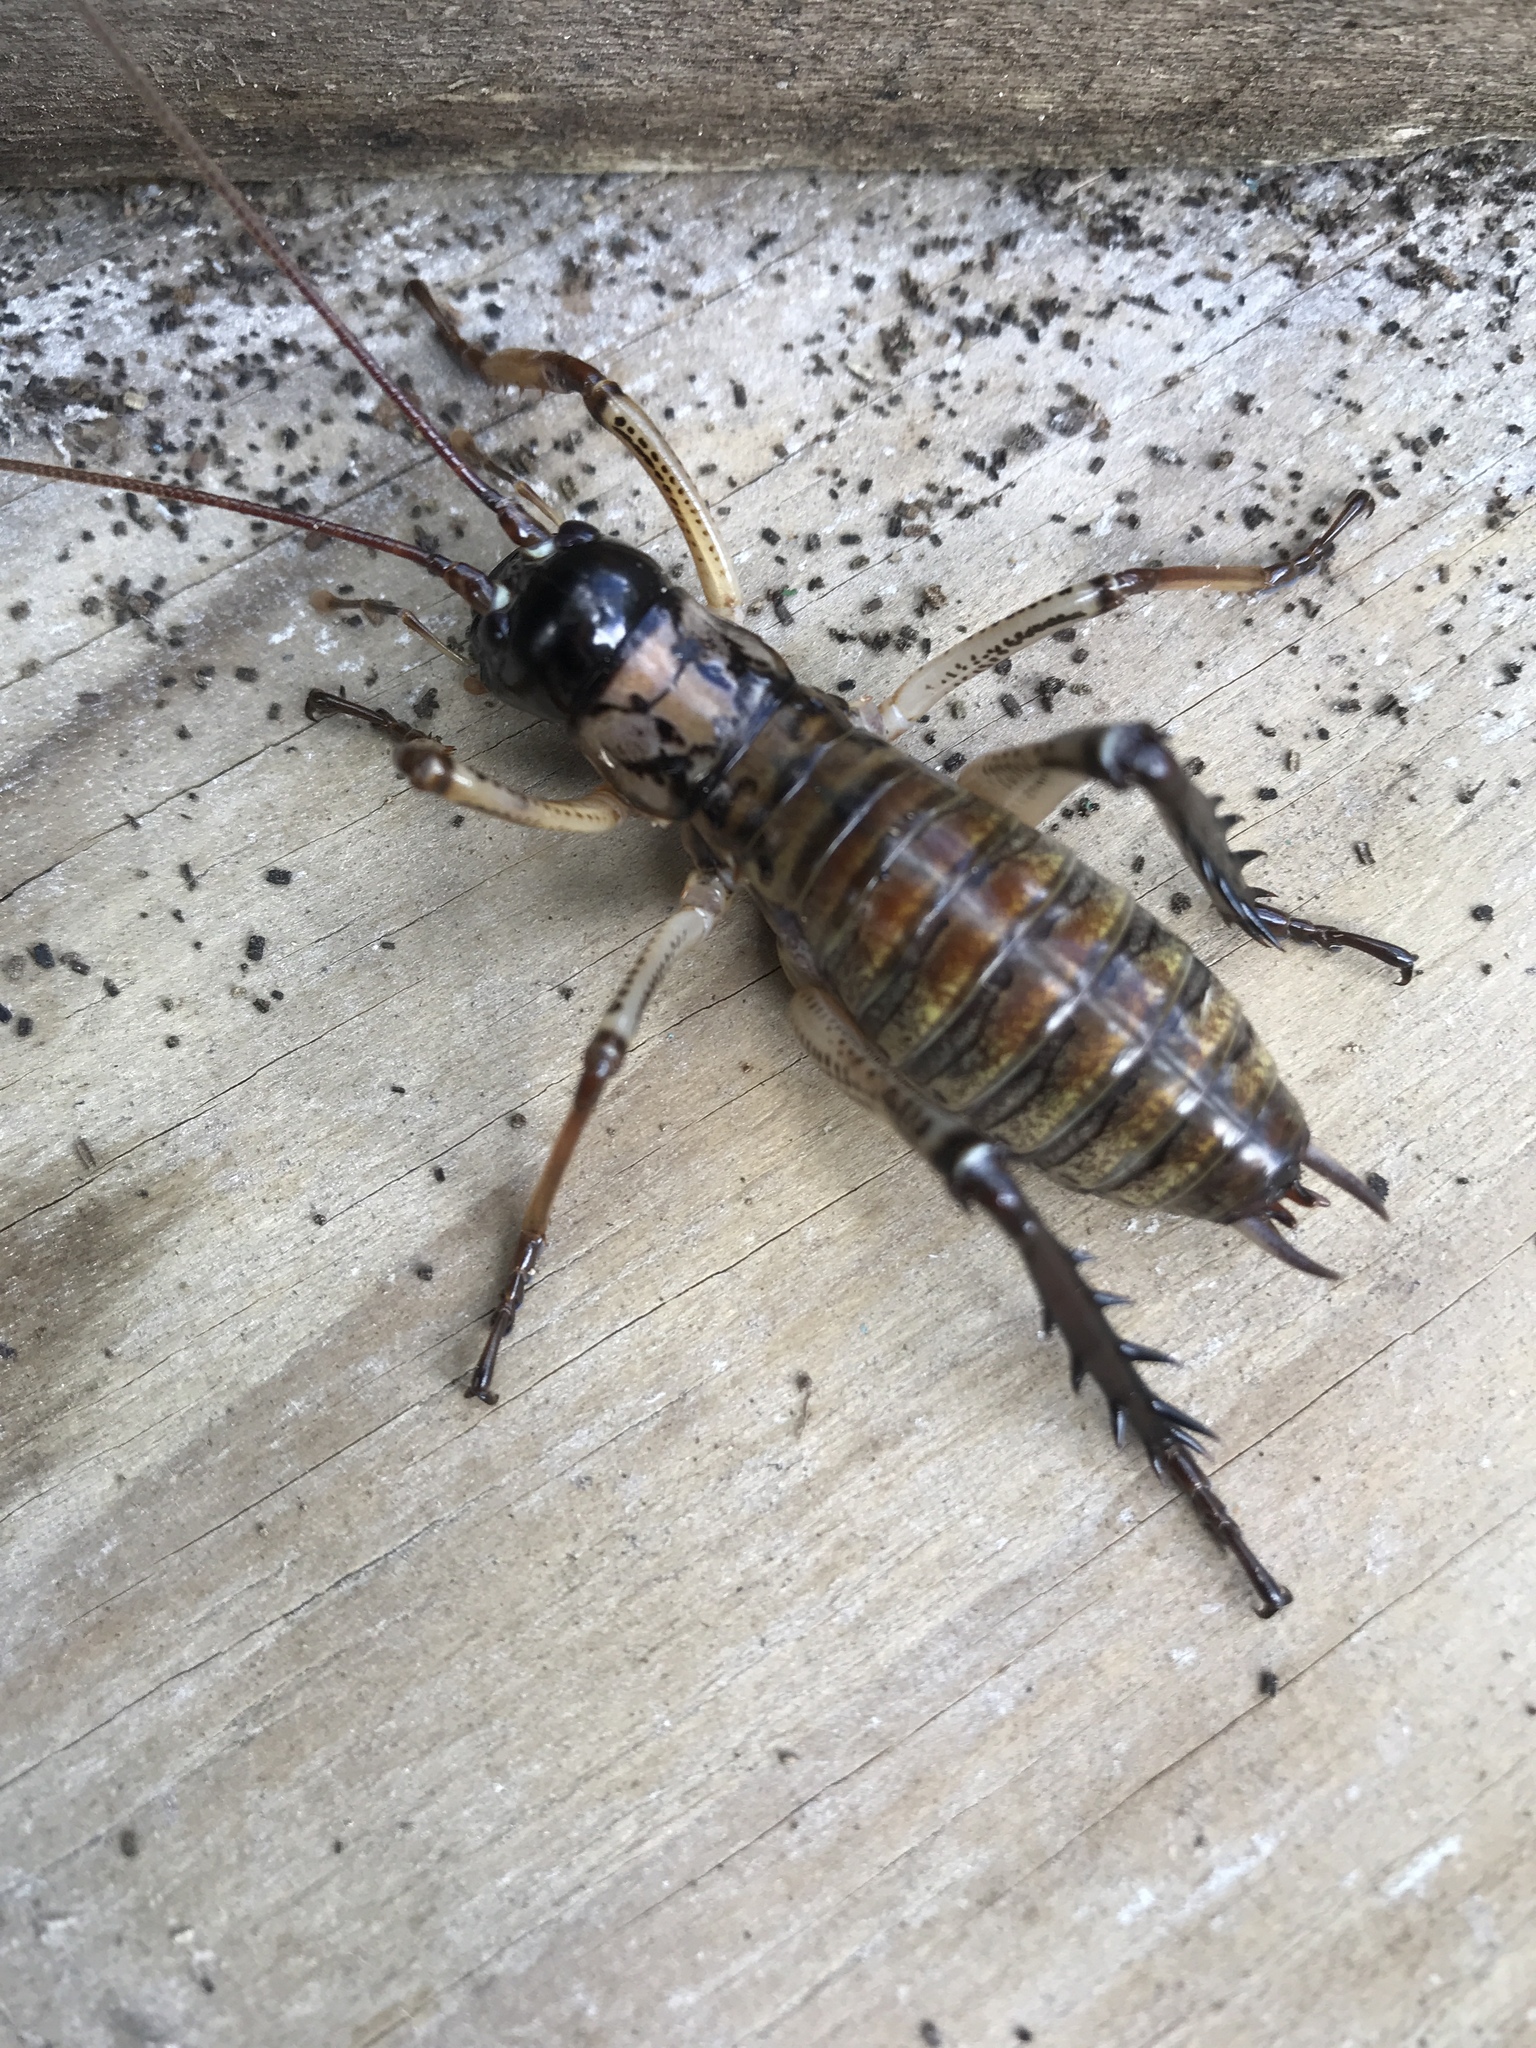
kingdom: Animalia
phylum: Arthropoda
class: Insecta
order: Orthoptera
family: Anostostomatidae
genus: Hemideina
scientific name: Hemideina thoracica
